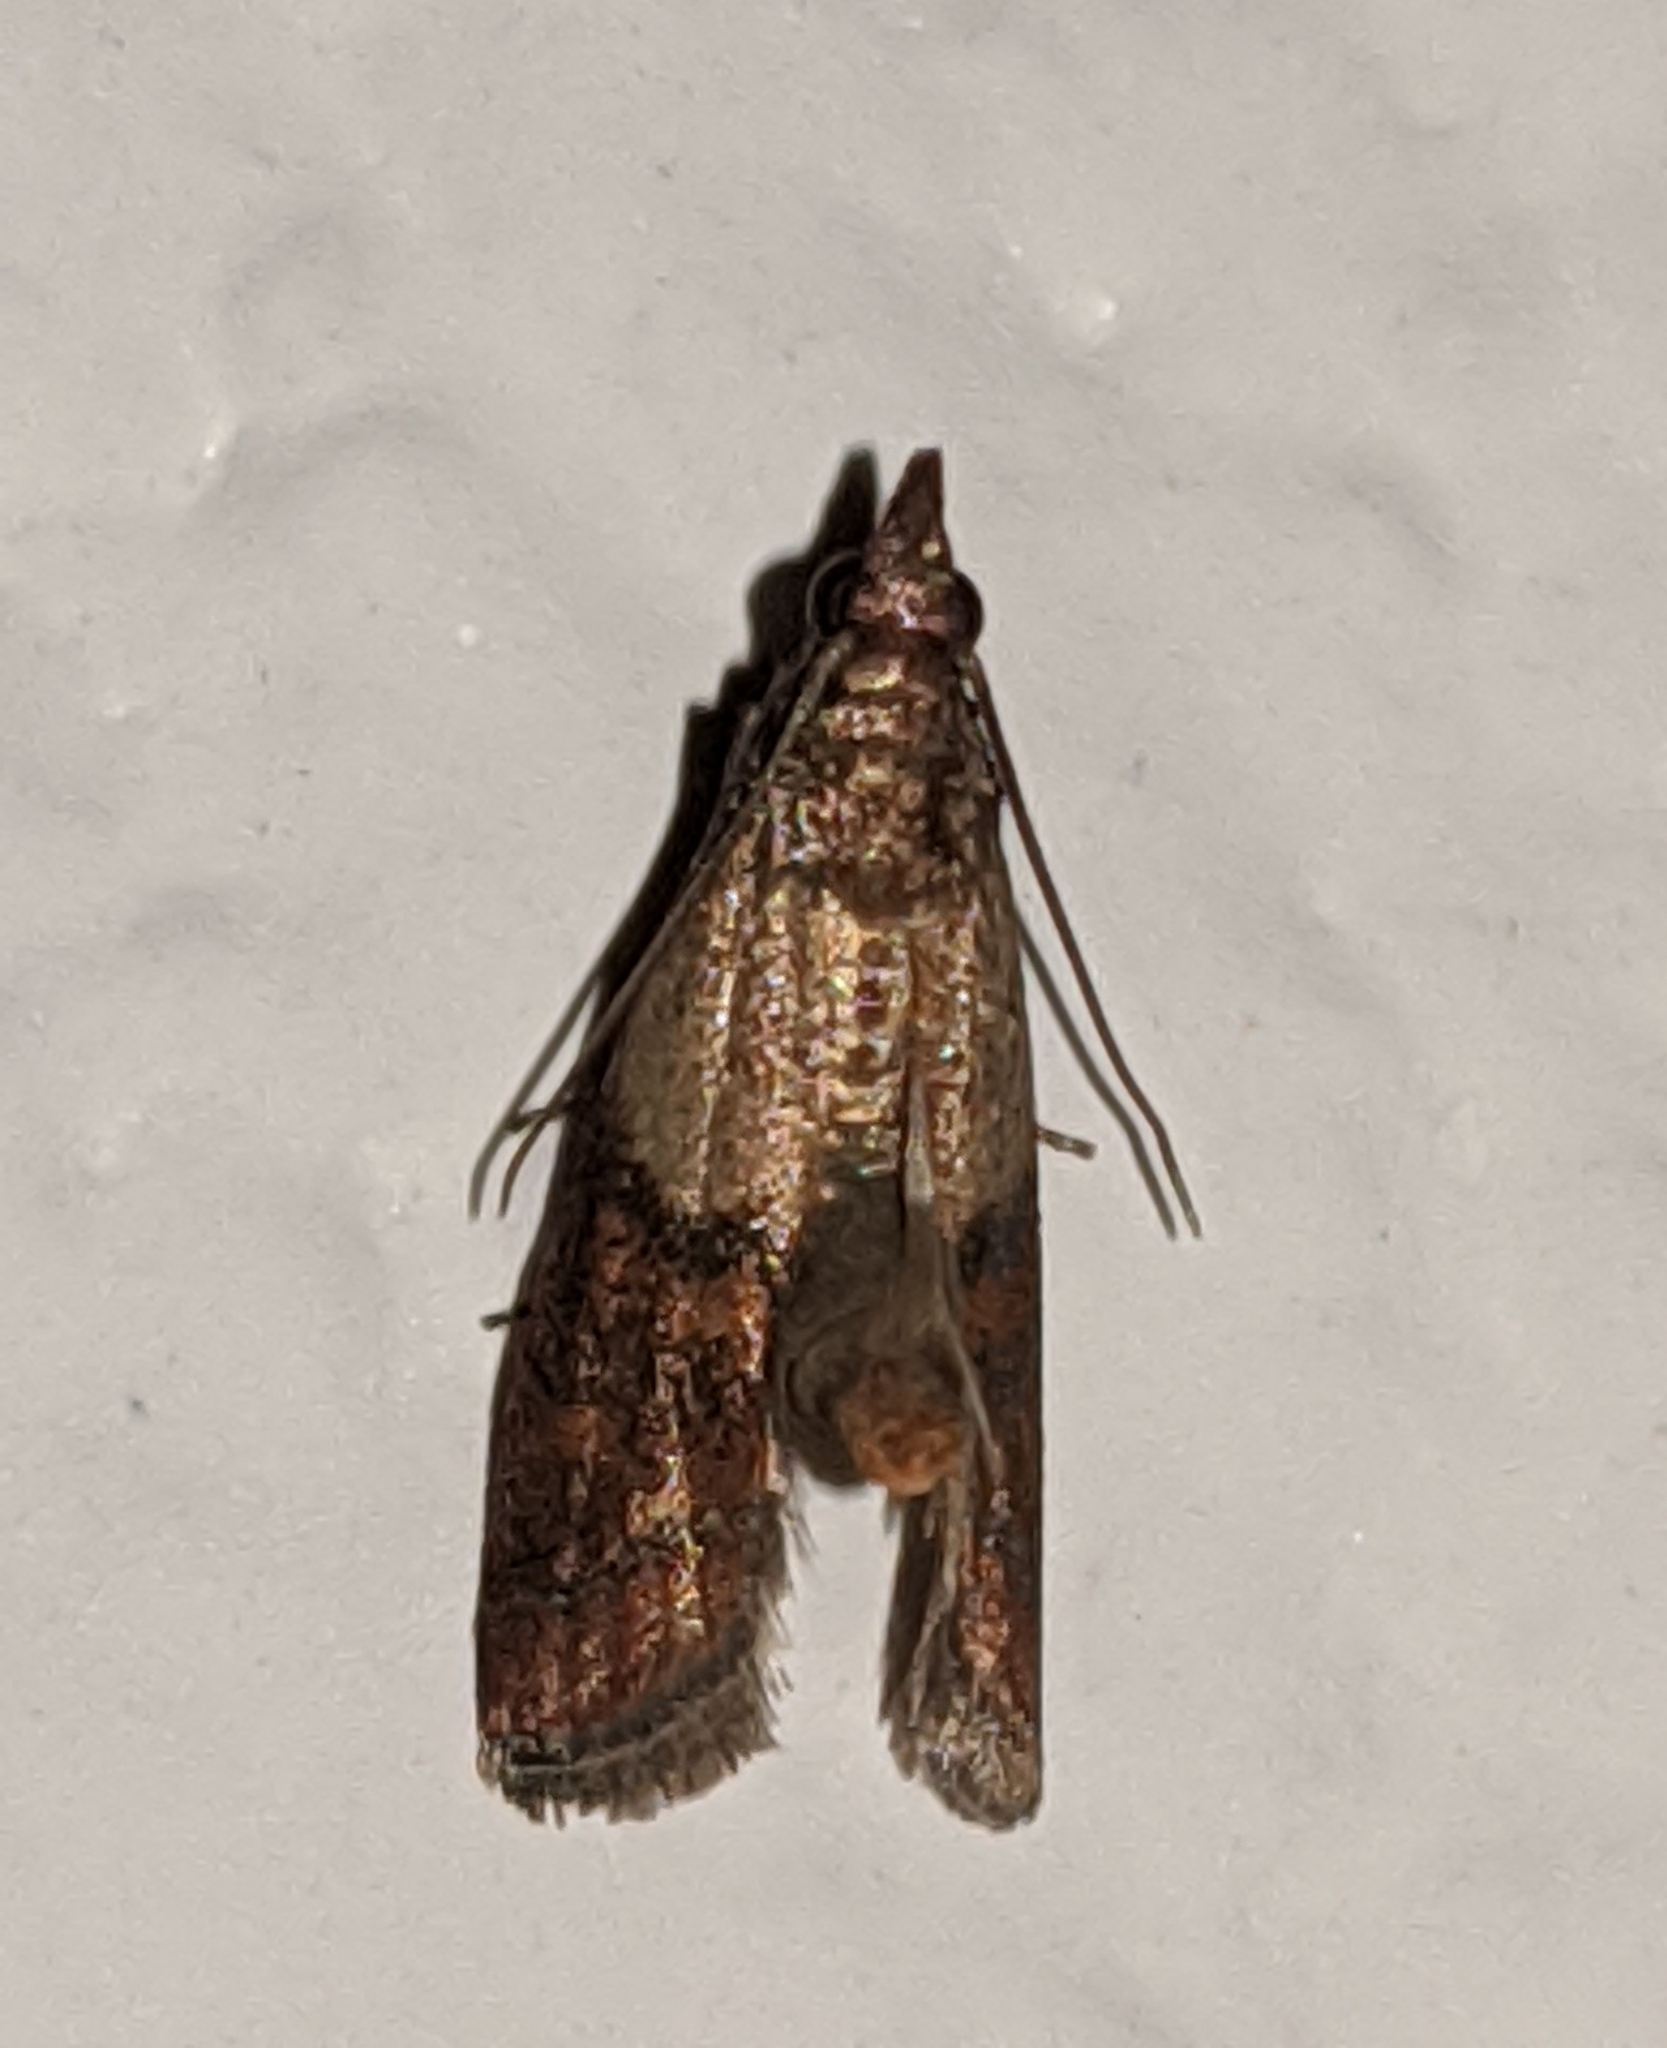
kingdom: Animalia
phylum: Arthropoda
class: Insecta
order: Lepidoptera
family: Pyralidae
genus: Plodia
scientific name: Plodia interpunctella
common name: Indian meal moth
